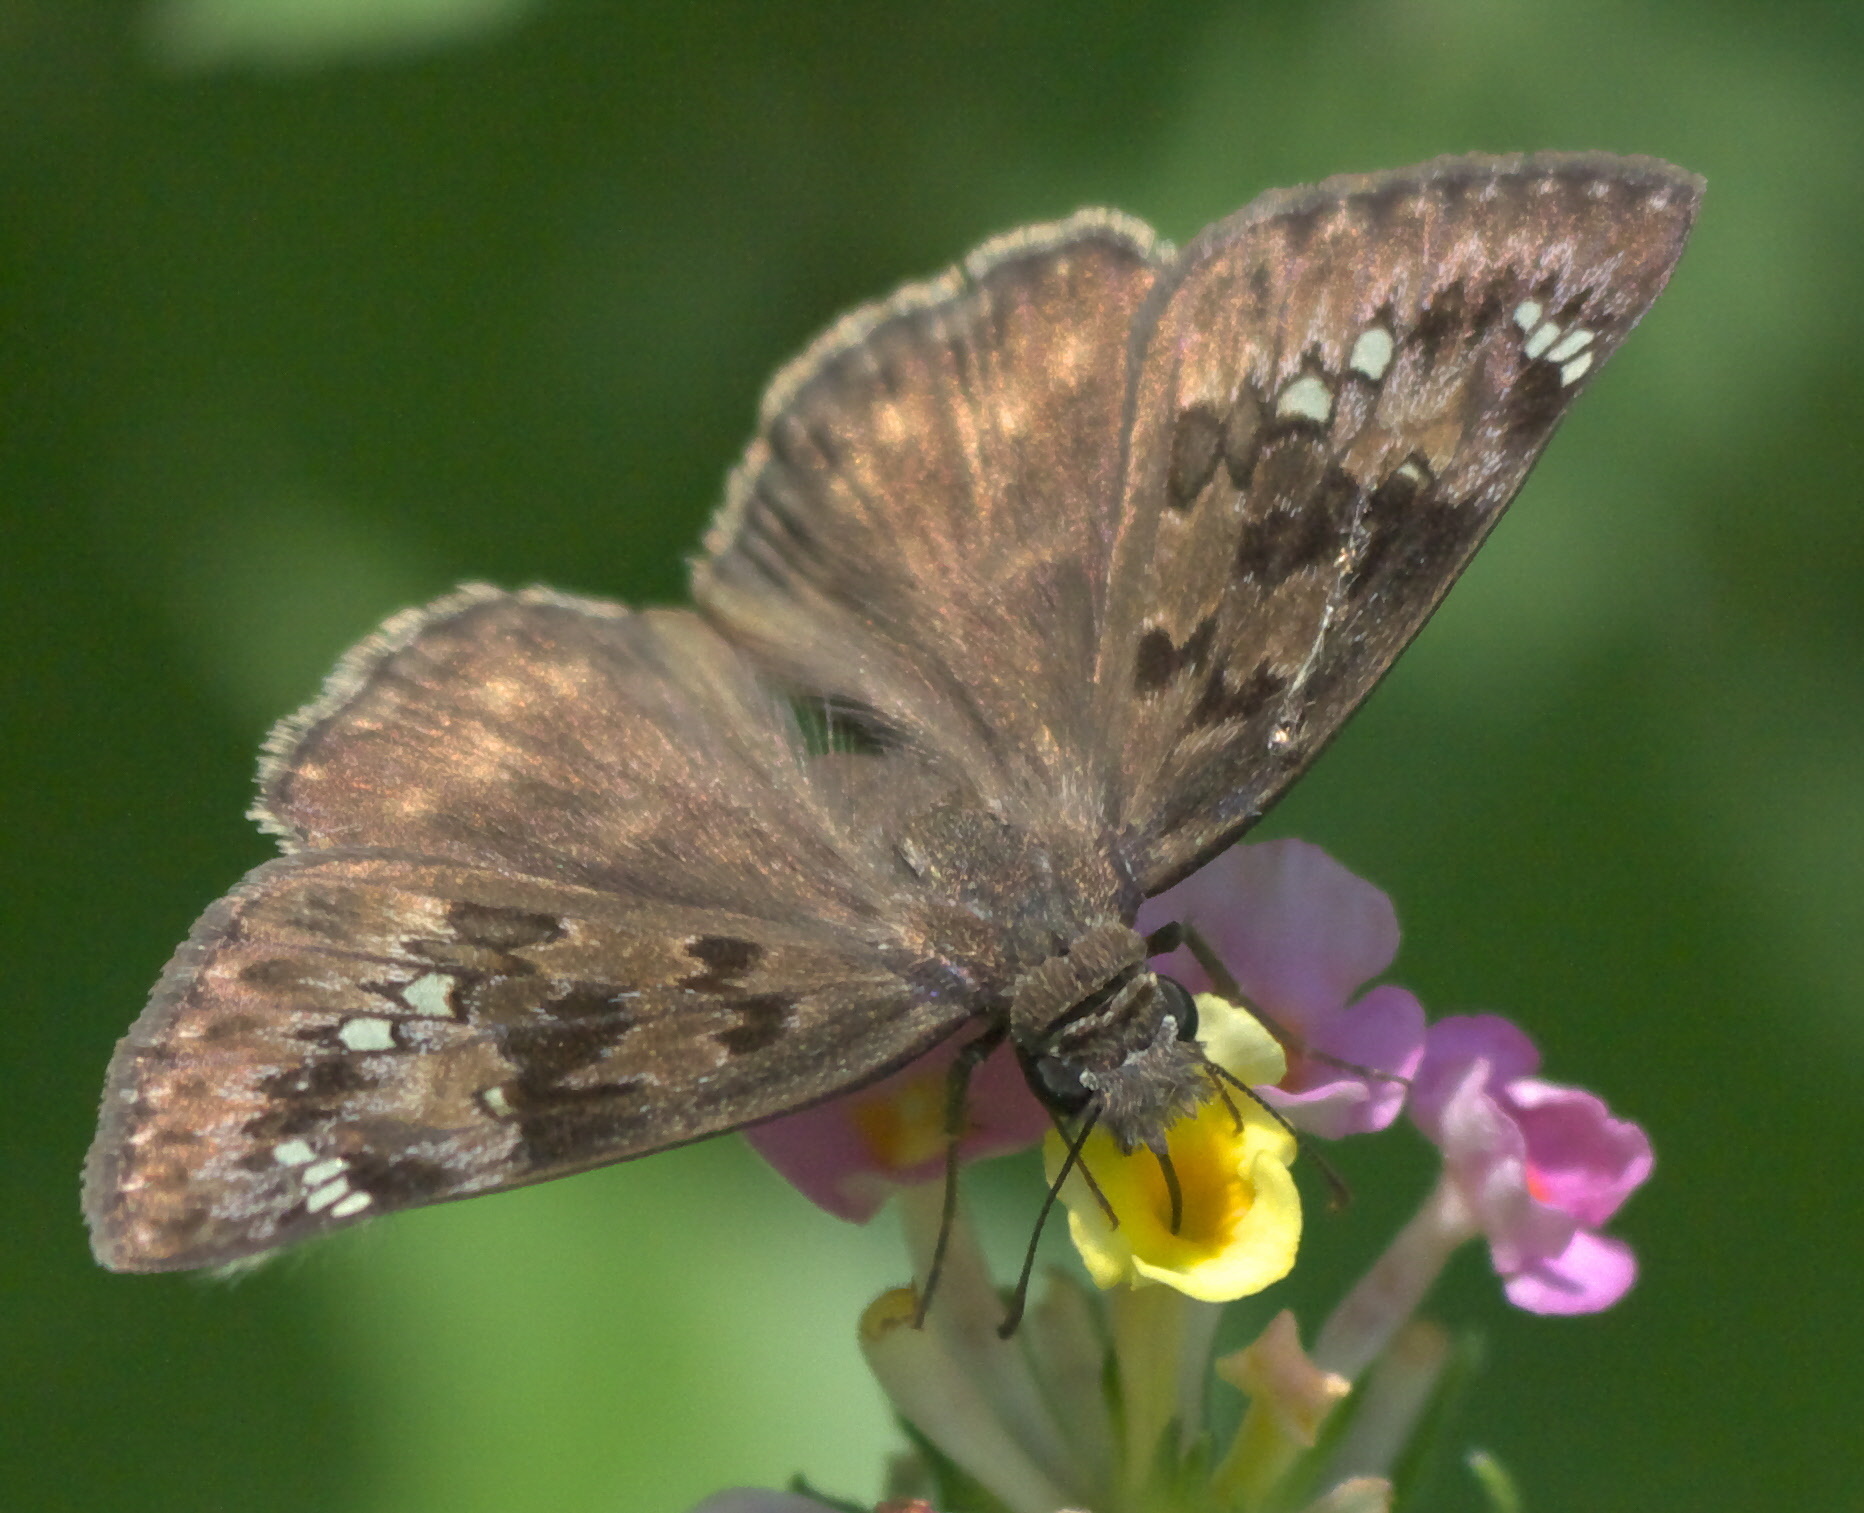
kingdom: Animalia
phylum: Arthropoda
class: Insecta
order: Lepidoptera
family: Hesperiidae
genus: Erynnis
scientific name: Erynnis horatius
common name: Horace's duskywing
